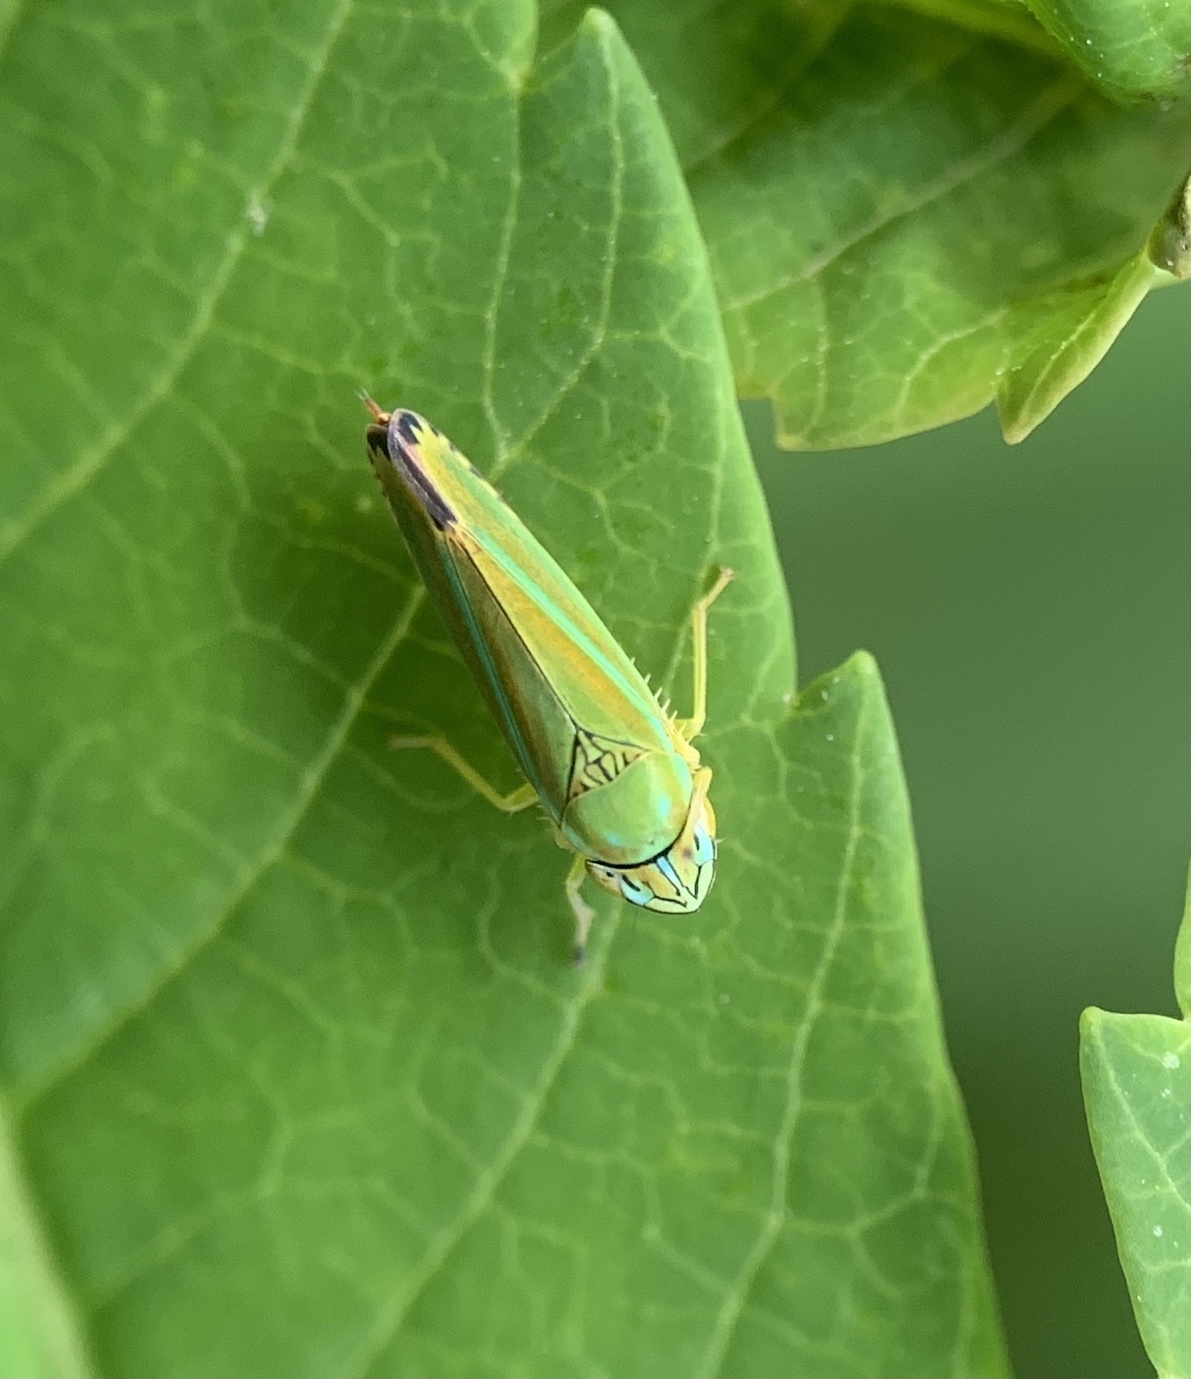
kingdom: Animalia
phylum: Arthropoda
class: Insecta
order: Hemiptera
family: Cicadellidae
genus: Graphocephala
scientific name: Graphocephala versuta
